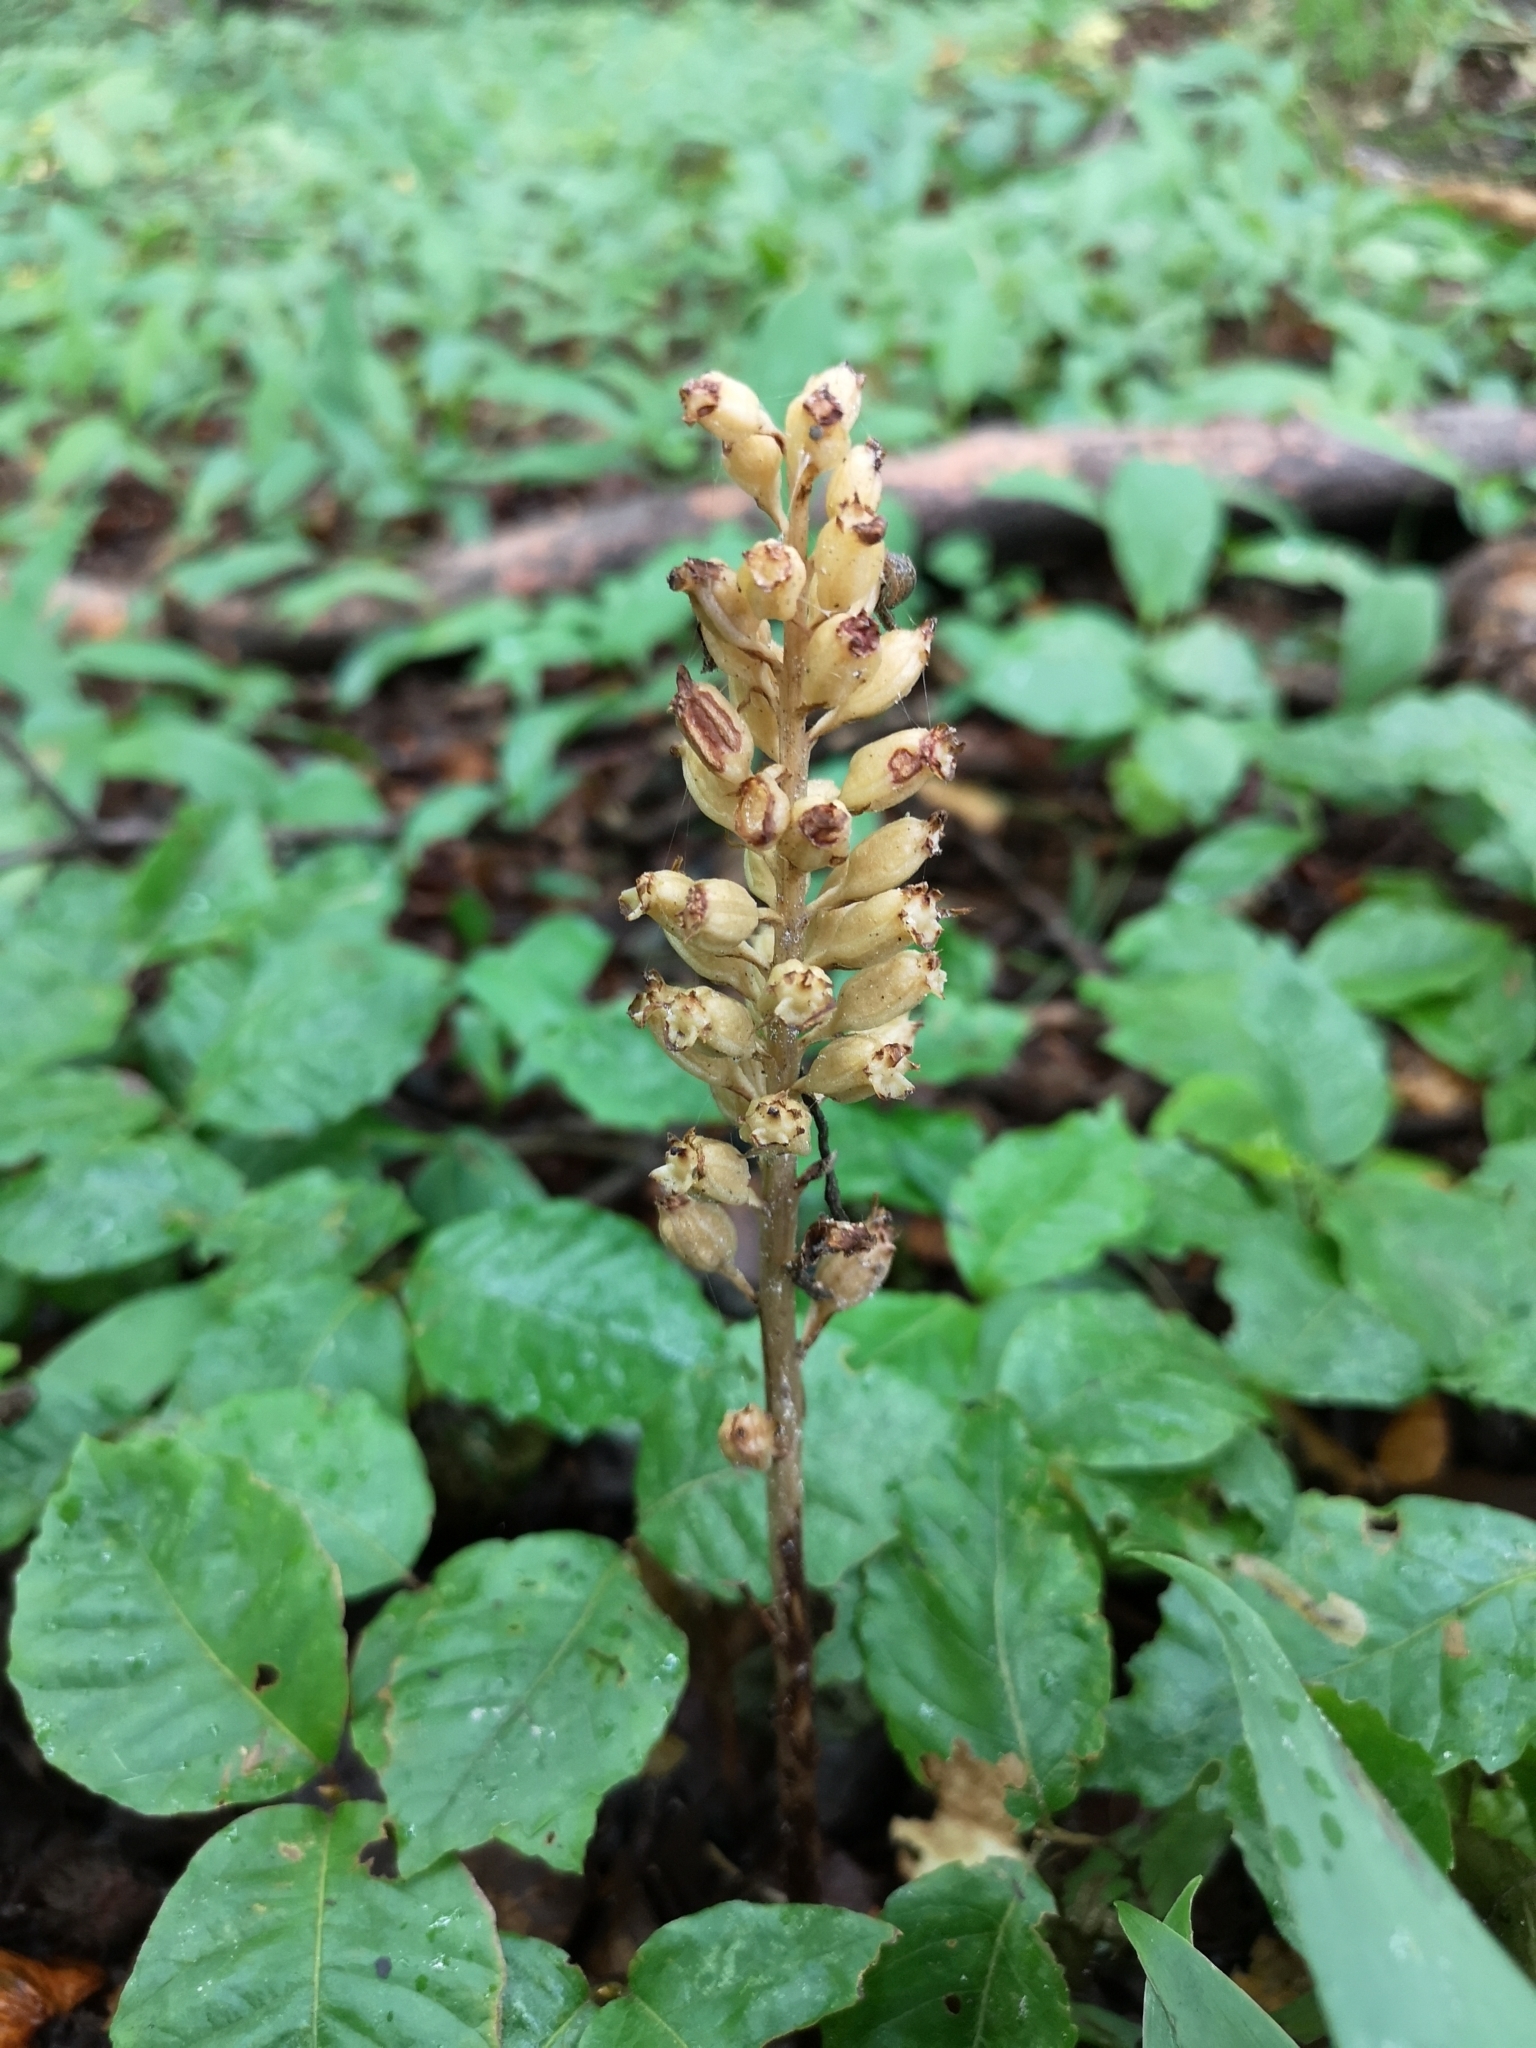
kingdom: Plantae
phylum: Tracheophyta
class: Liliopsida
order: Asparagales
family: Orchidaceae
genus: Neottia
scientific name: Neottia nidus-avis
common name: Bird's-nest orchid
